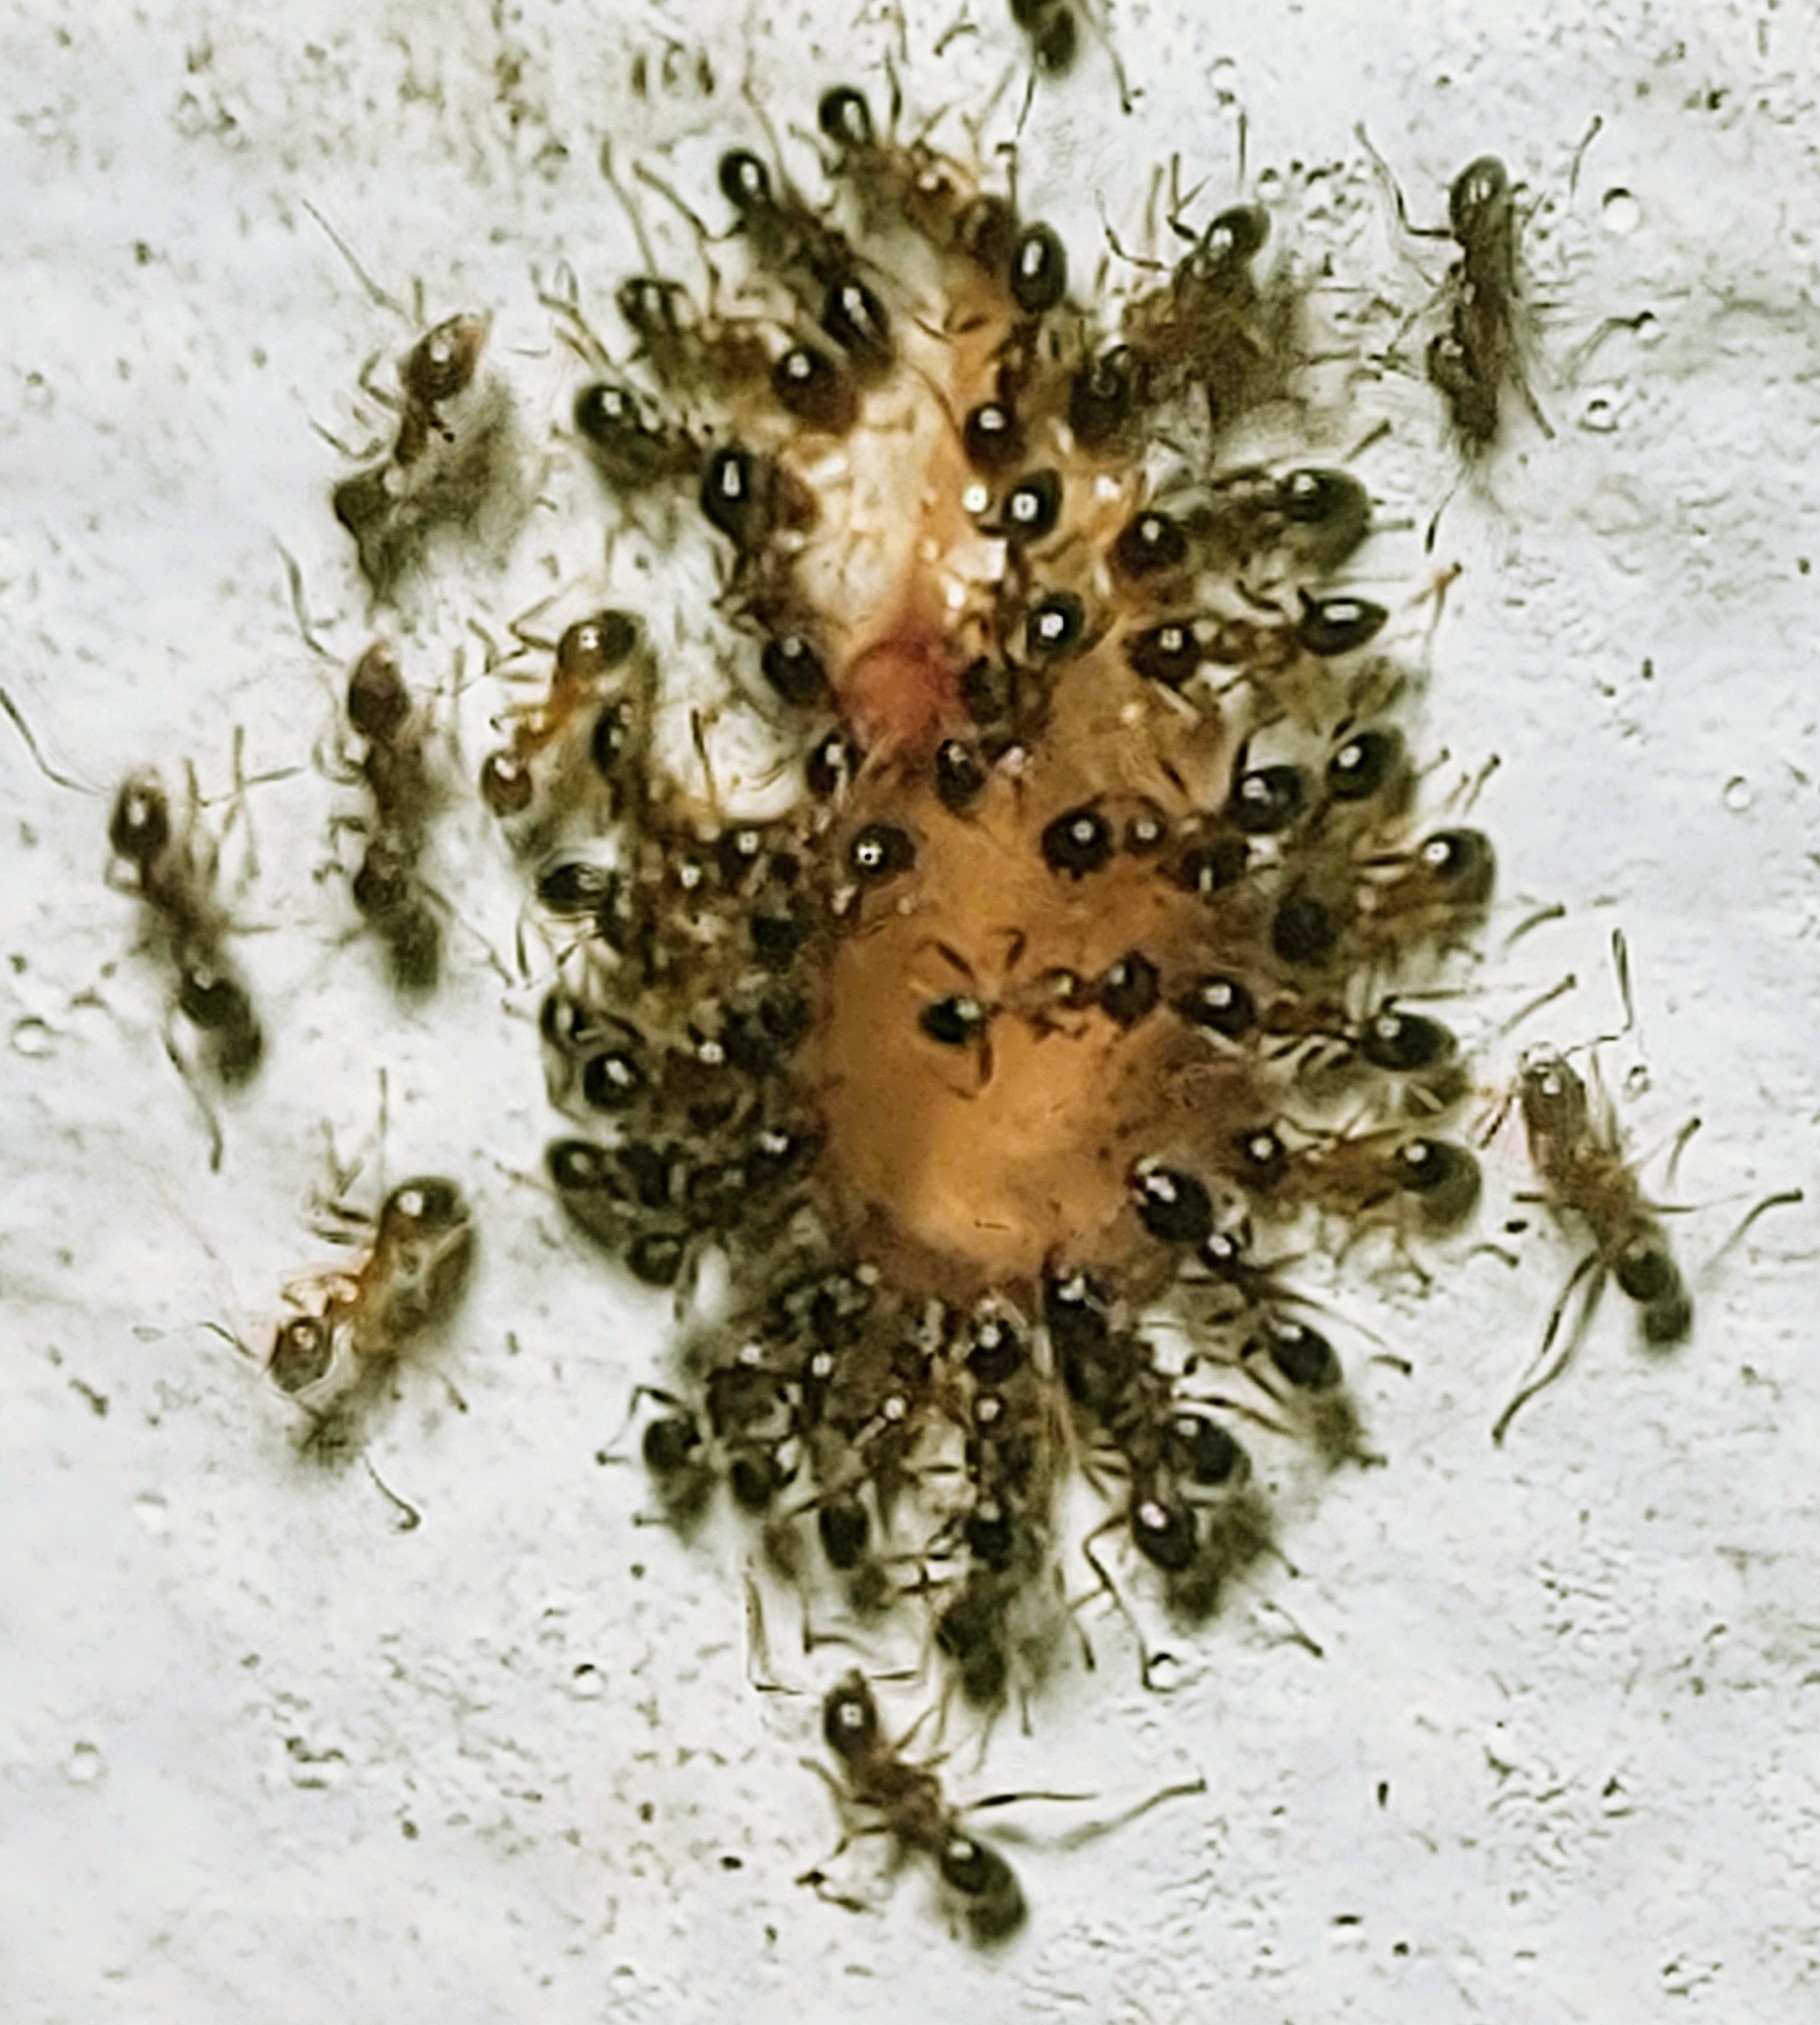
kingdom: Animalia
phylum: Arthropoda
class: Insecta
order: Hymenoptera
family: Formicidae
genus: Pheidole
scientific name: Pheidole megacephala
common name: Bigheaded ant
